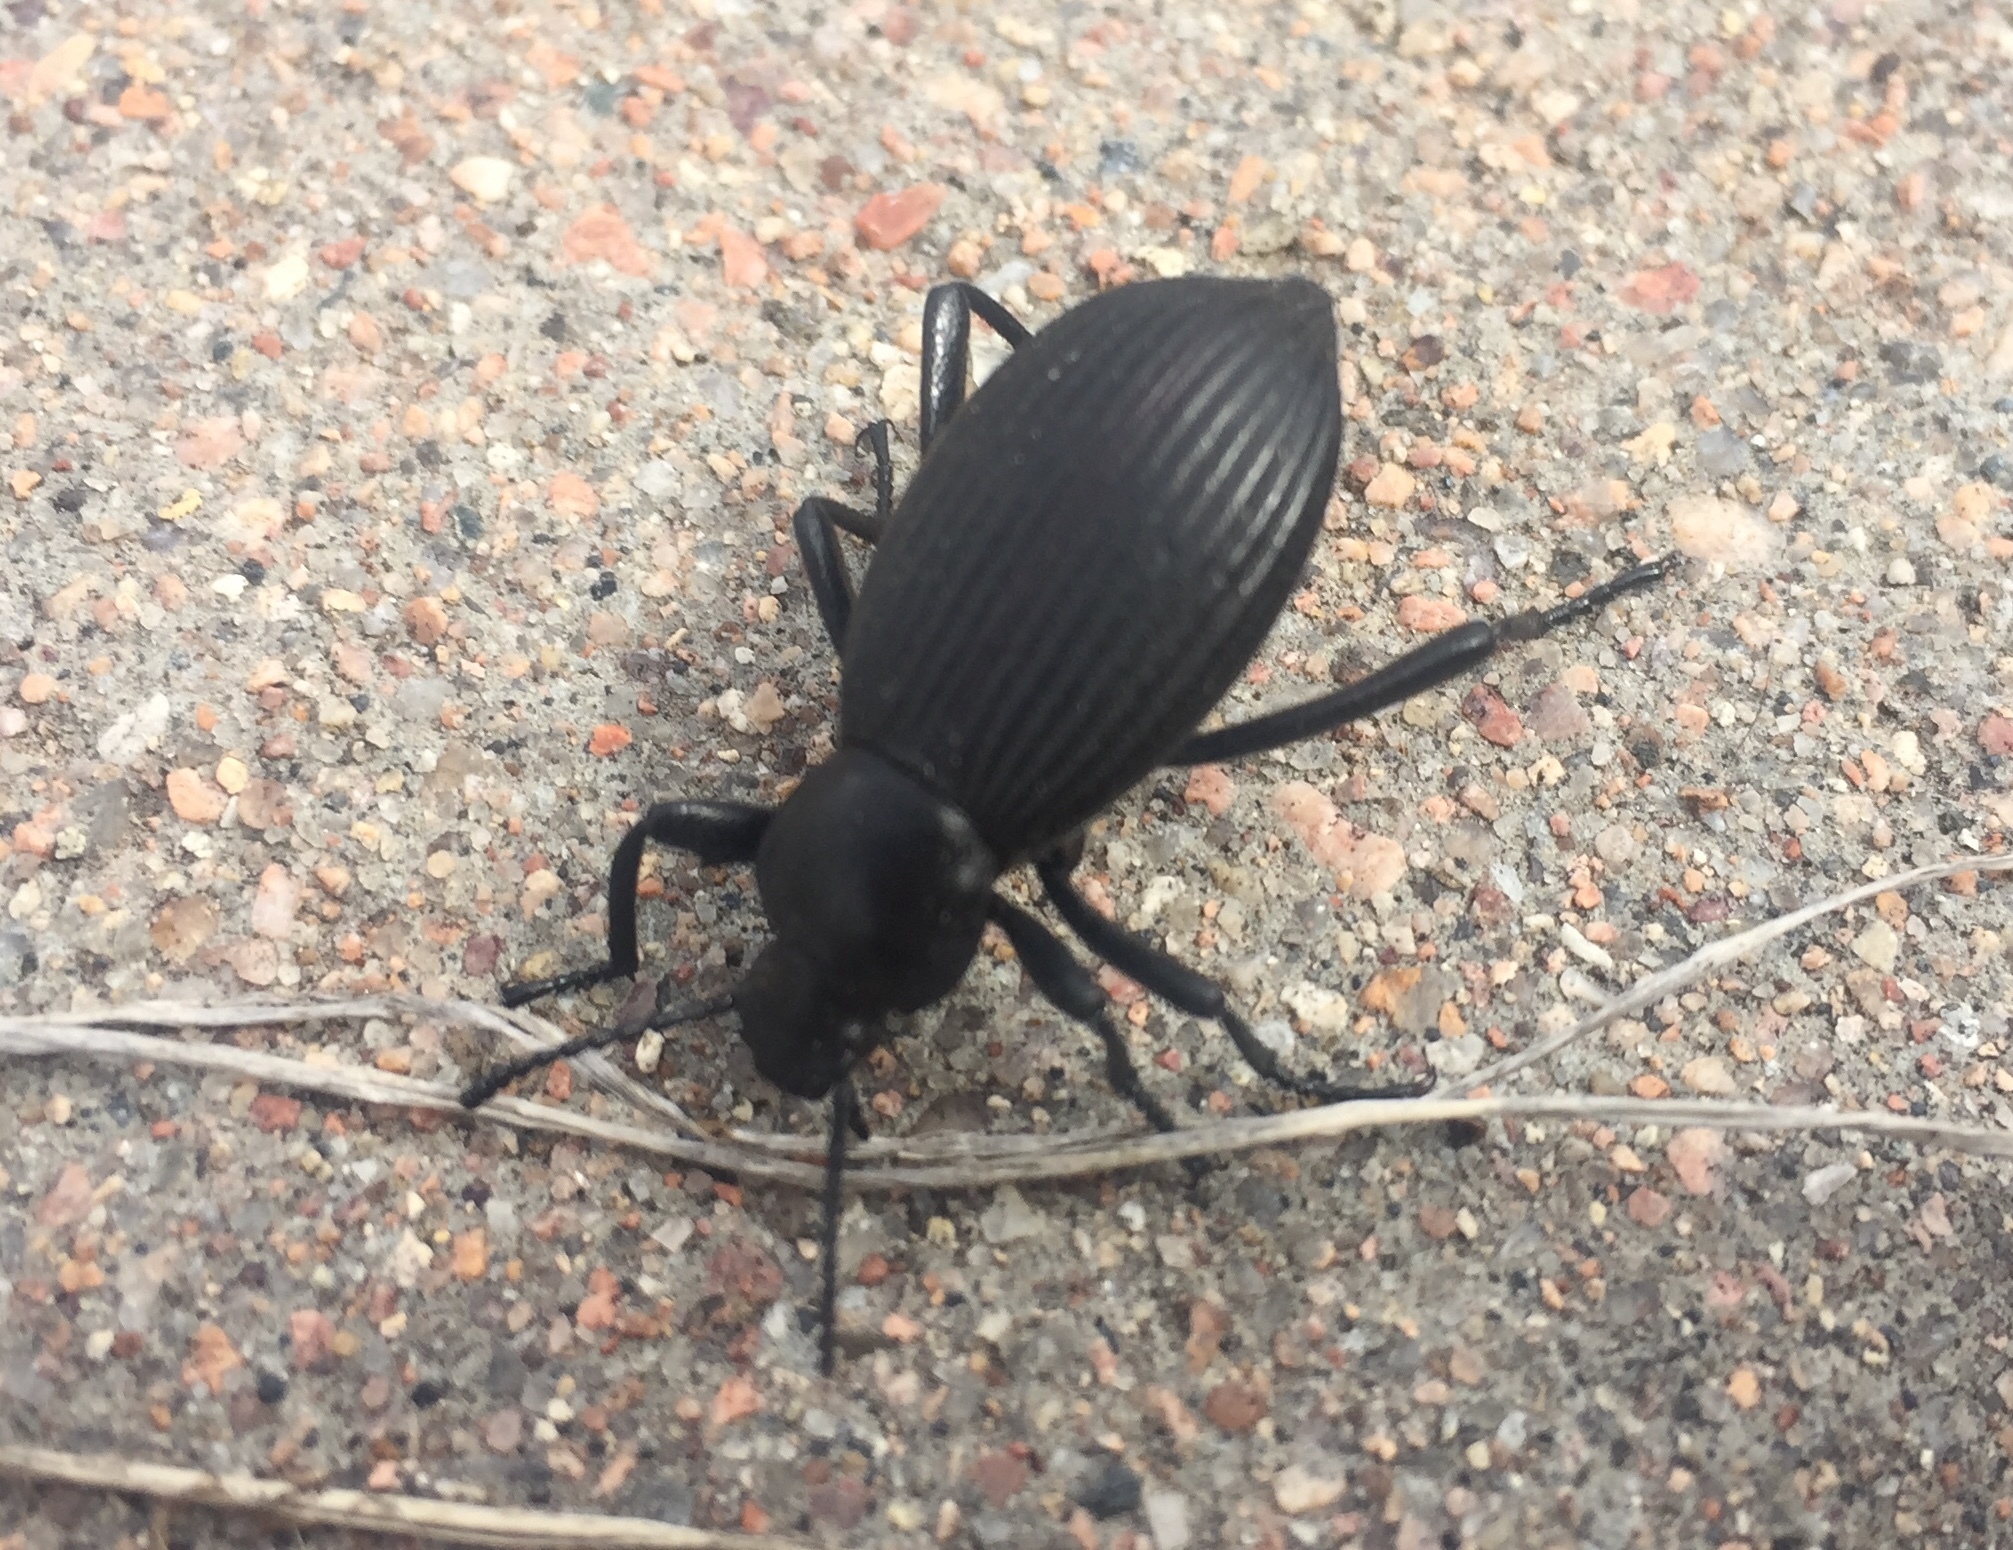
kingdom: Animalia
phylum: Arthropoda
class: Insecta
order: Coleoptera
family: Tenebrionidae
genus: Eleodes
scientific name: Eleodes hispilabris
